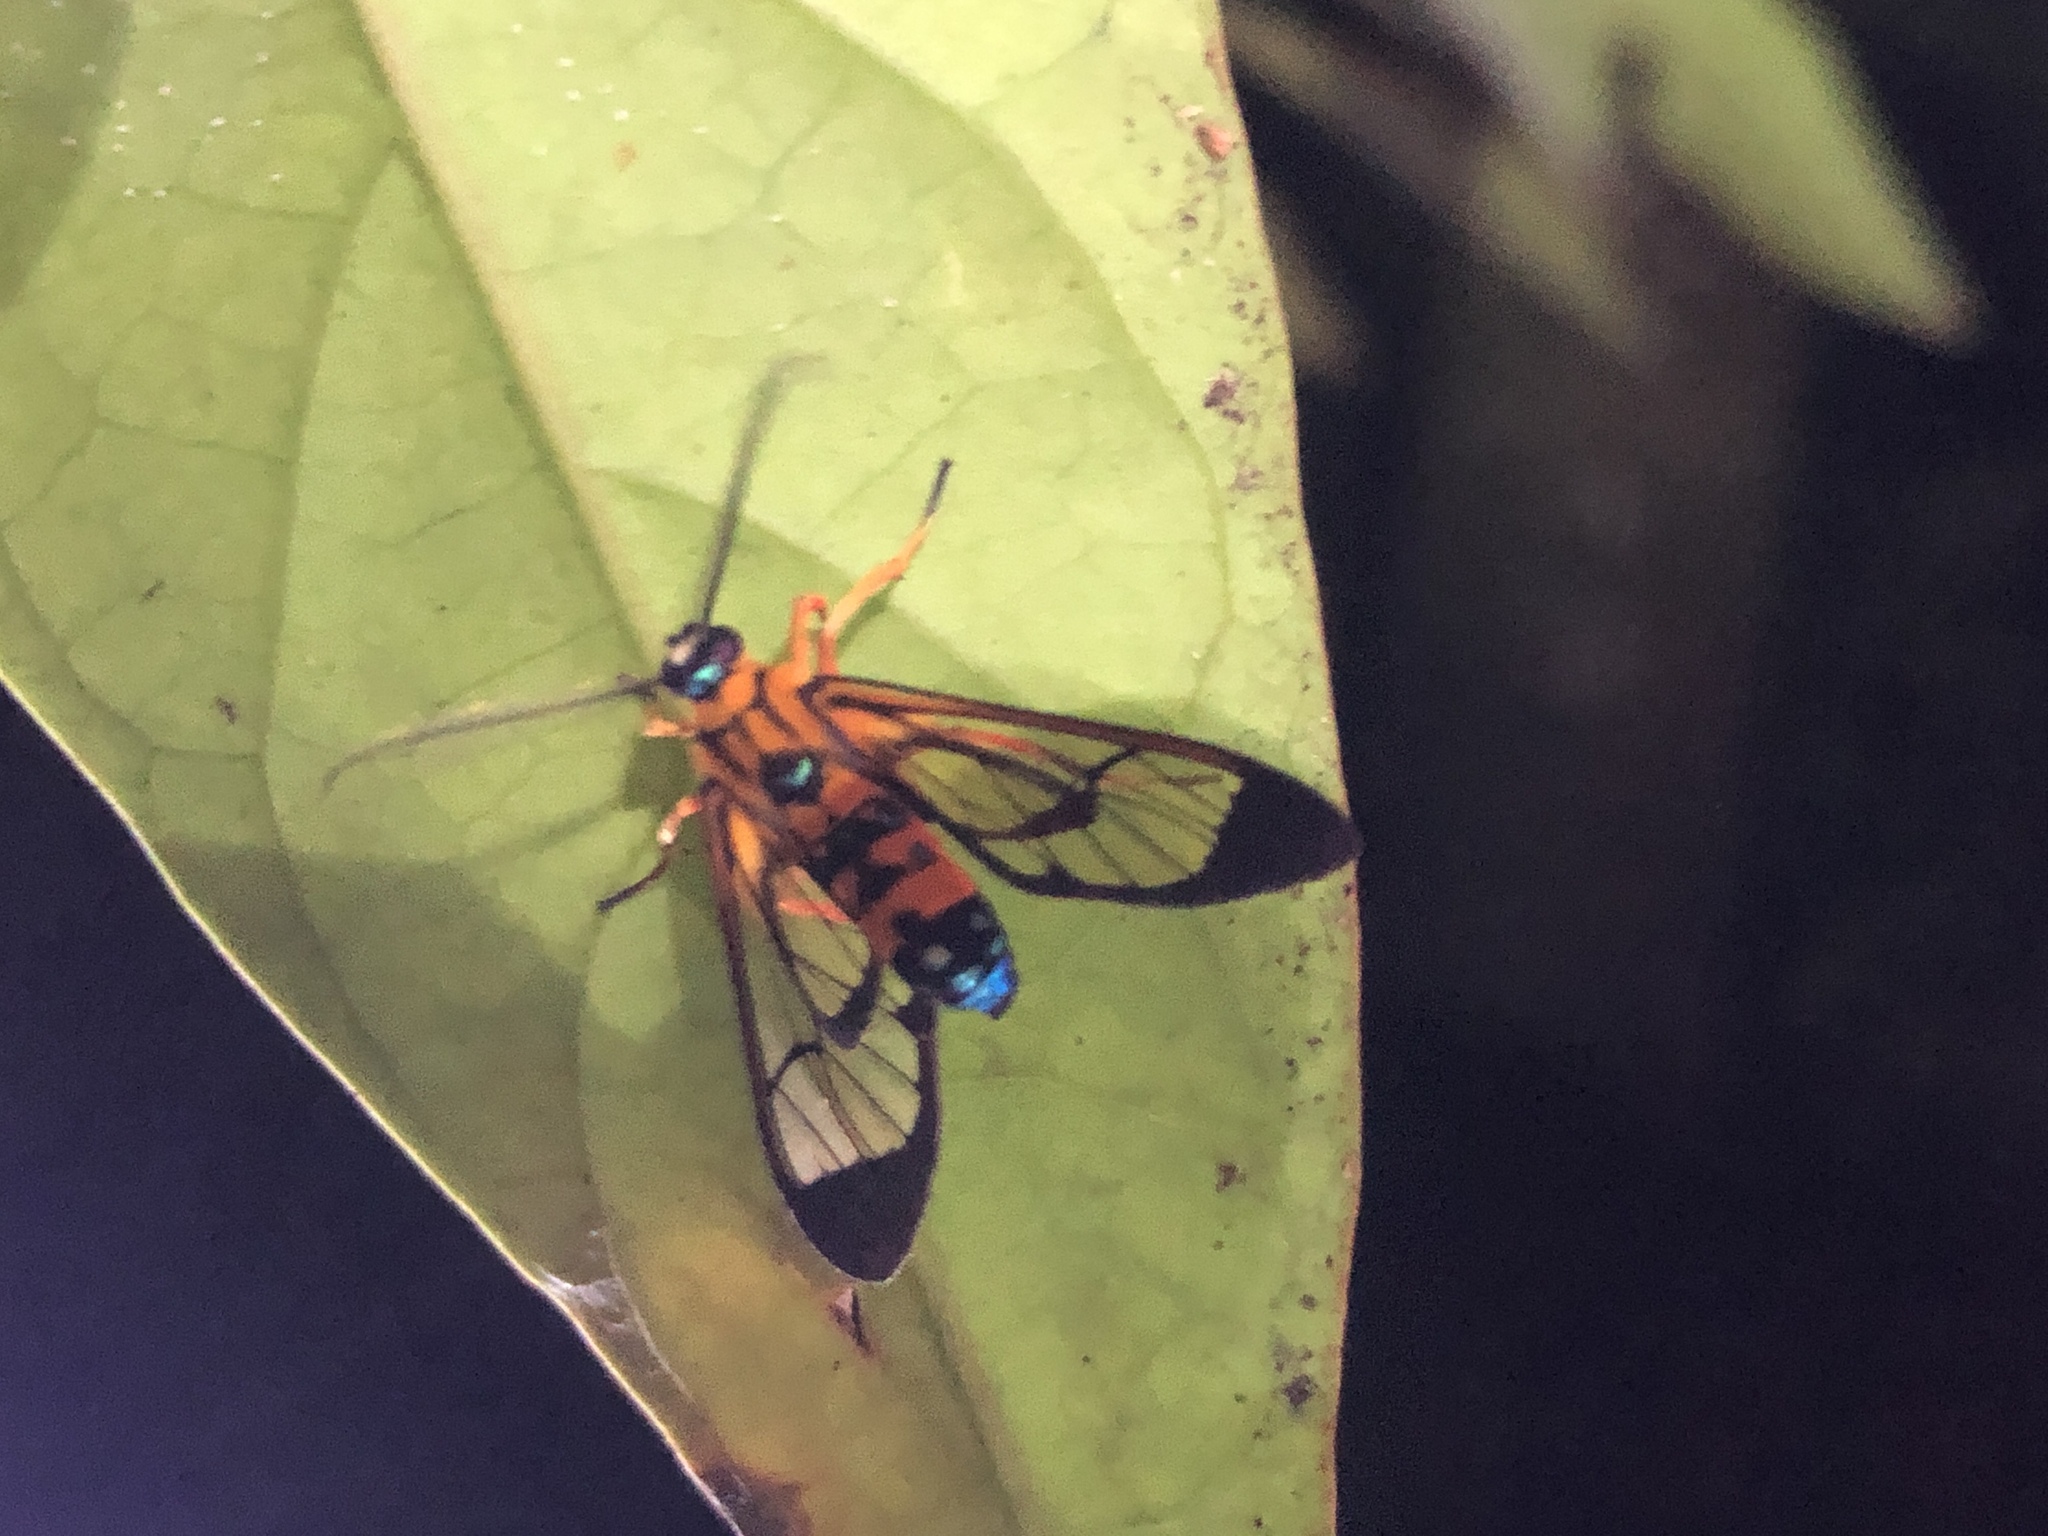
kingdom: Animalia
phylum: Arthropoda
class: Insecta
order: Lepidoptera
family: Erebidae
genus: Pheia
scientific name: Pheia elegans
